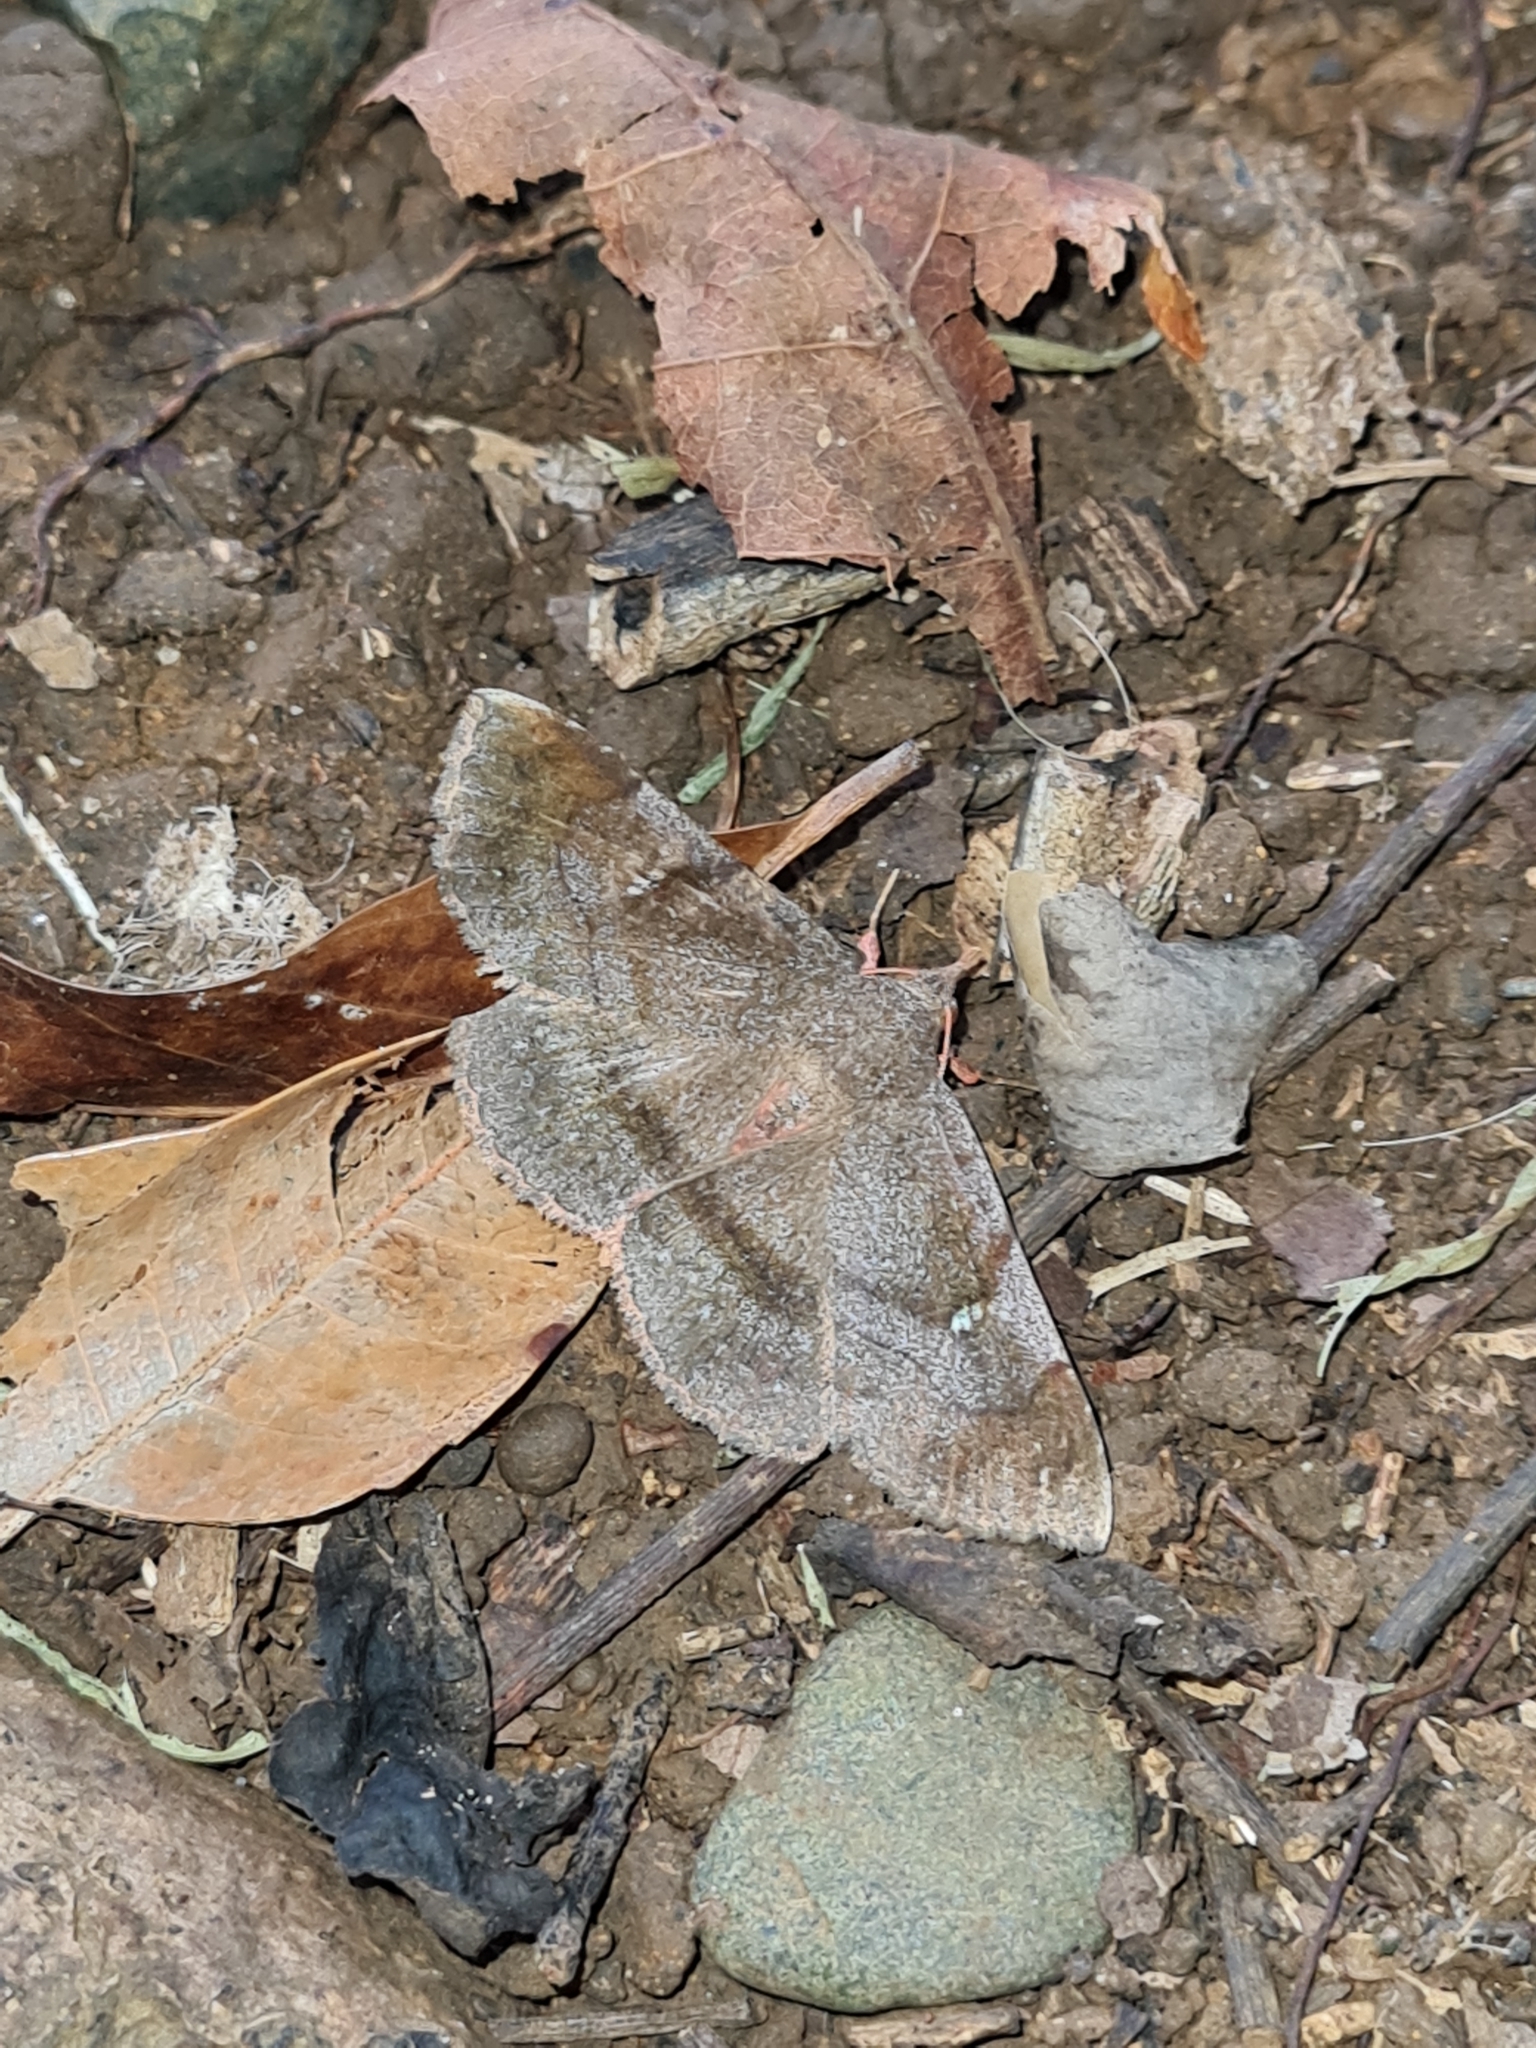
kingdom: Animalia
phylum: Arthropoda
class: Insecta
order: Lepidoptera
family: Erebidae
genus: Azeta
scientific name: Azeta melanea
